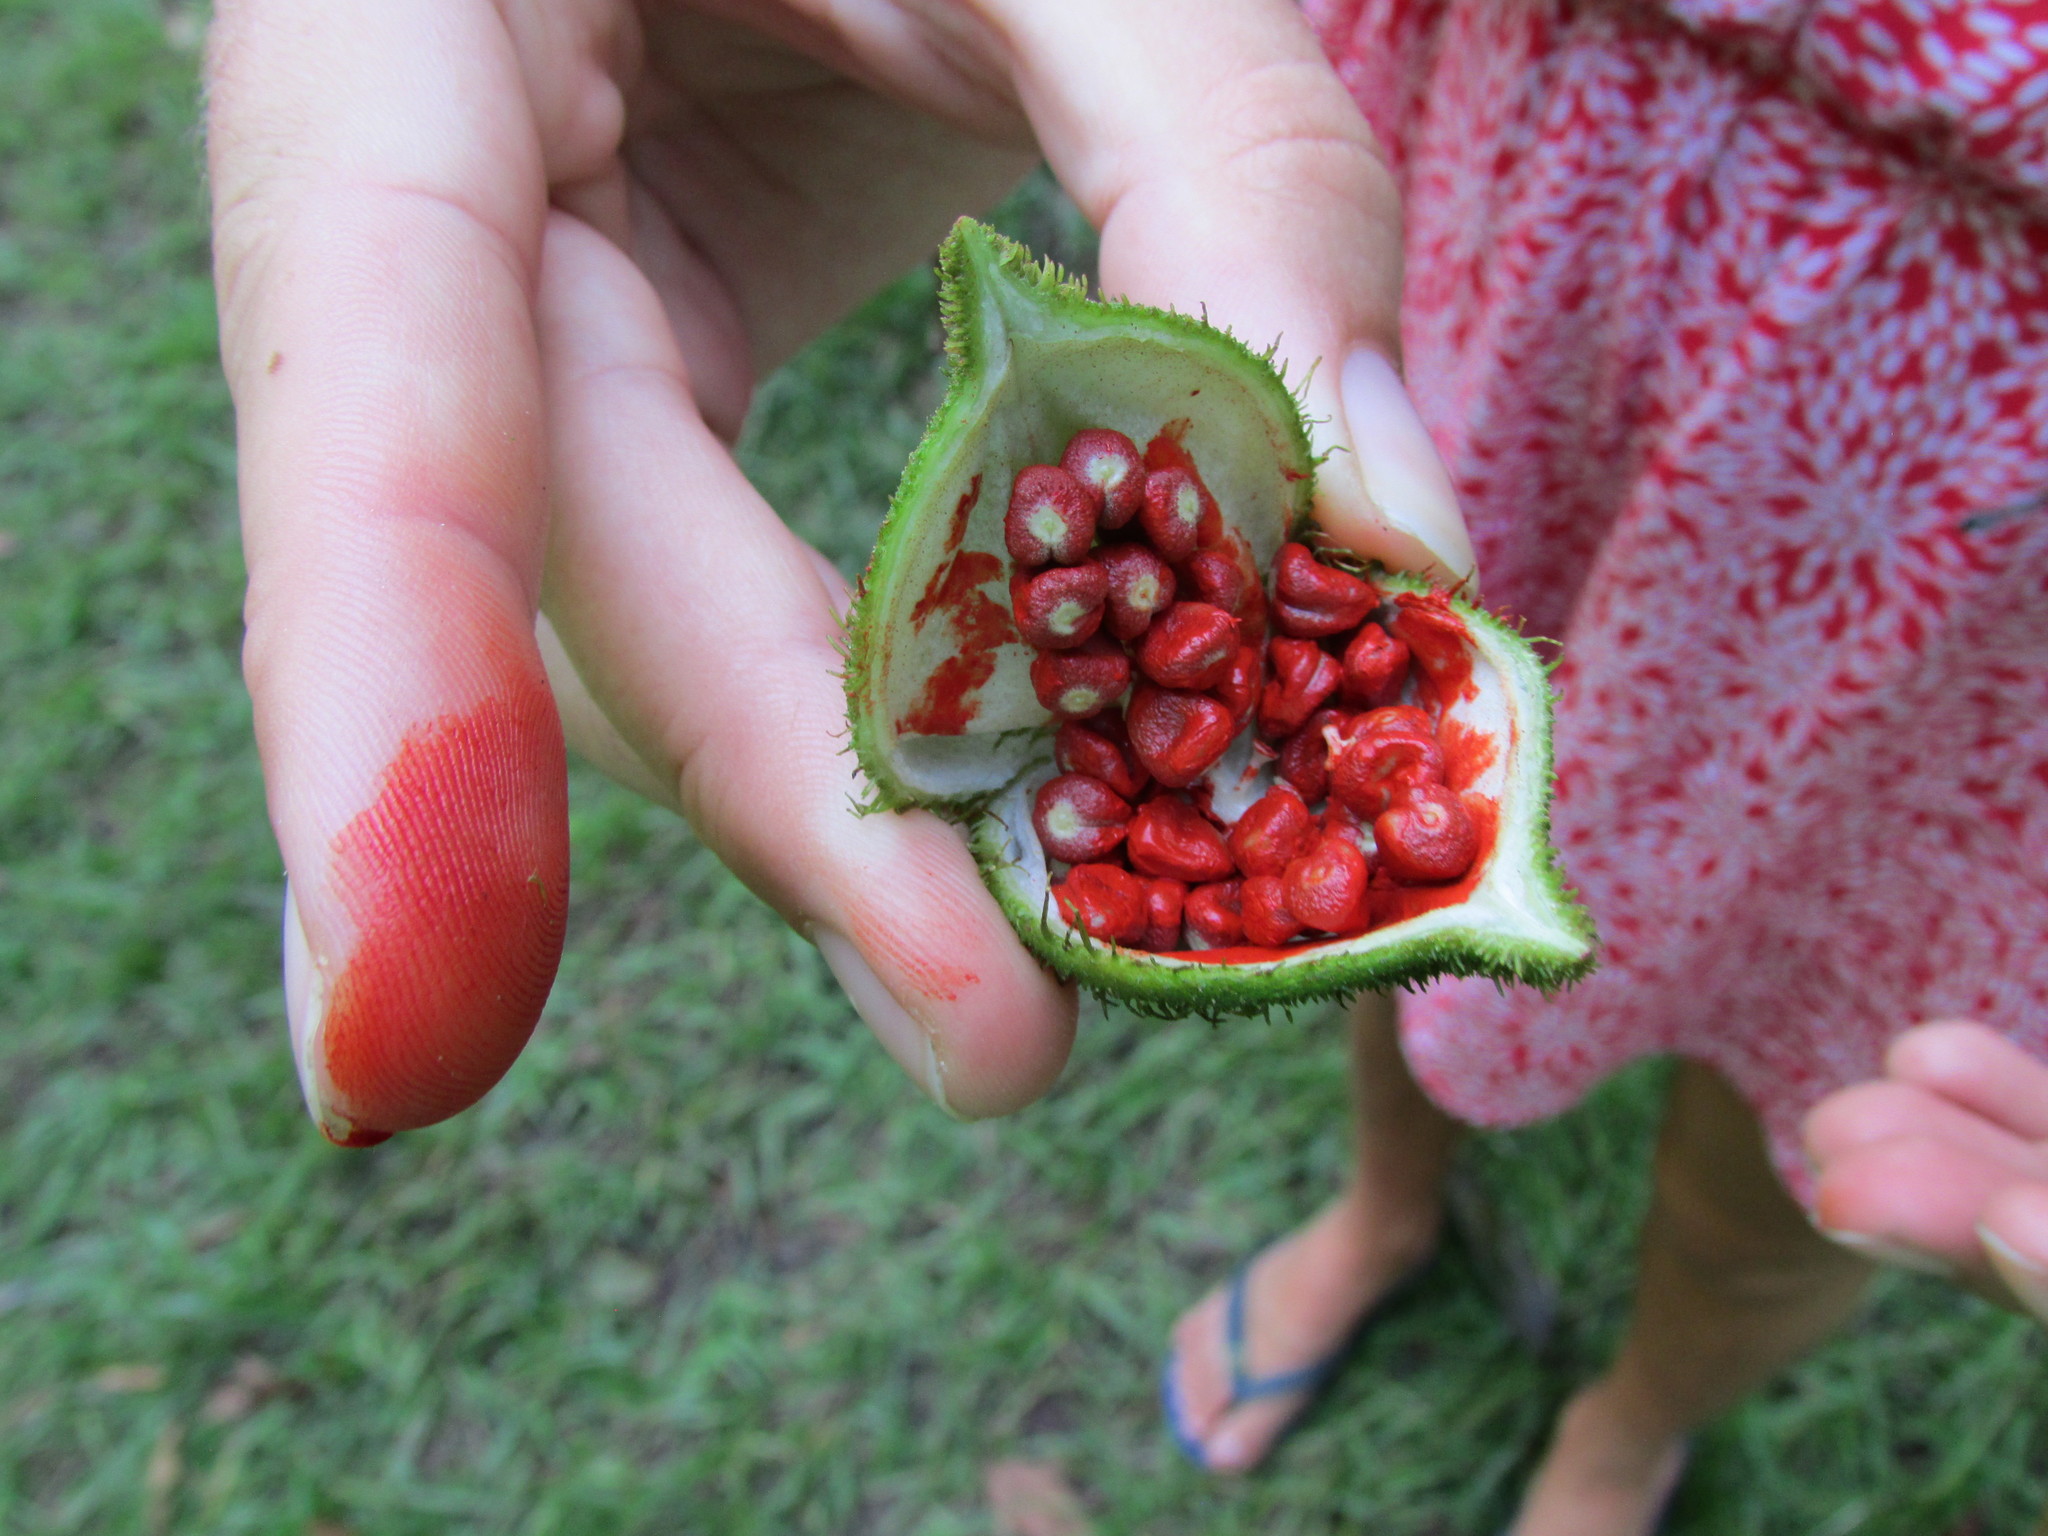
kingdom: Plantae
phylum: Tracheophyta
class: Magnoliopsida
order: Malvales
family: Bixaceae
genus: Bixa
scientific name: Bixa orellana
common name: Lipsticktree
